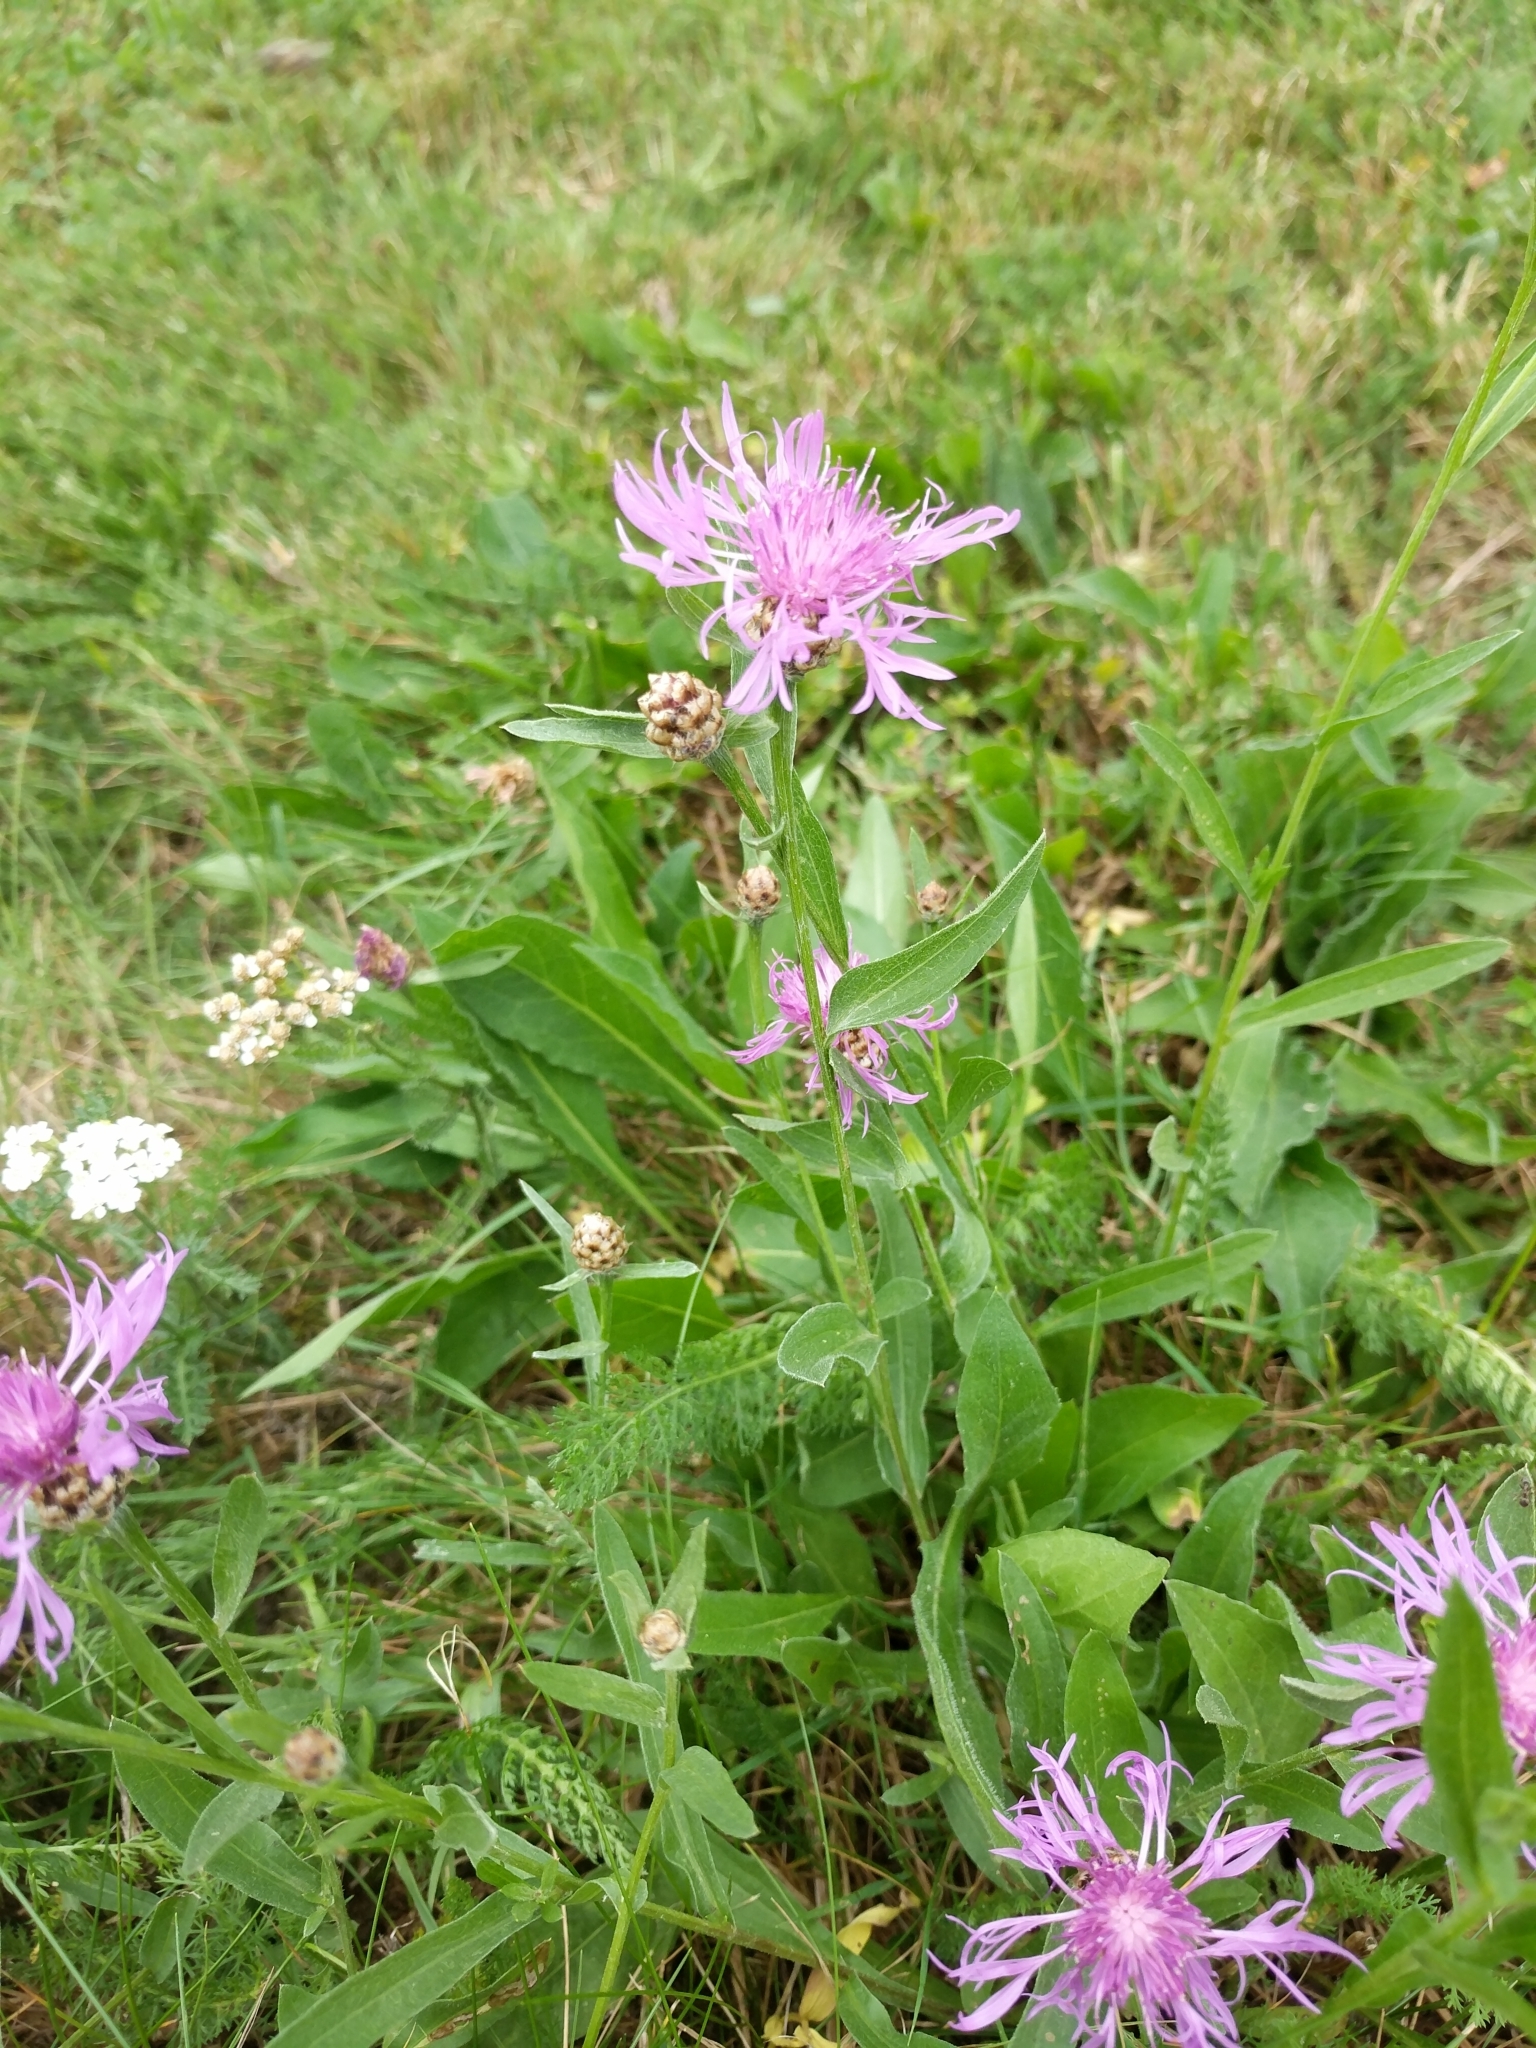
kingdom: Plantae
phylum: Tracheophyta
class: Magnoliopsida
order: Asterales
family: Asteraceae
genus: Centaurea
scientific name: Centaurea jacea
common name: Brown knapweed
